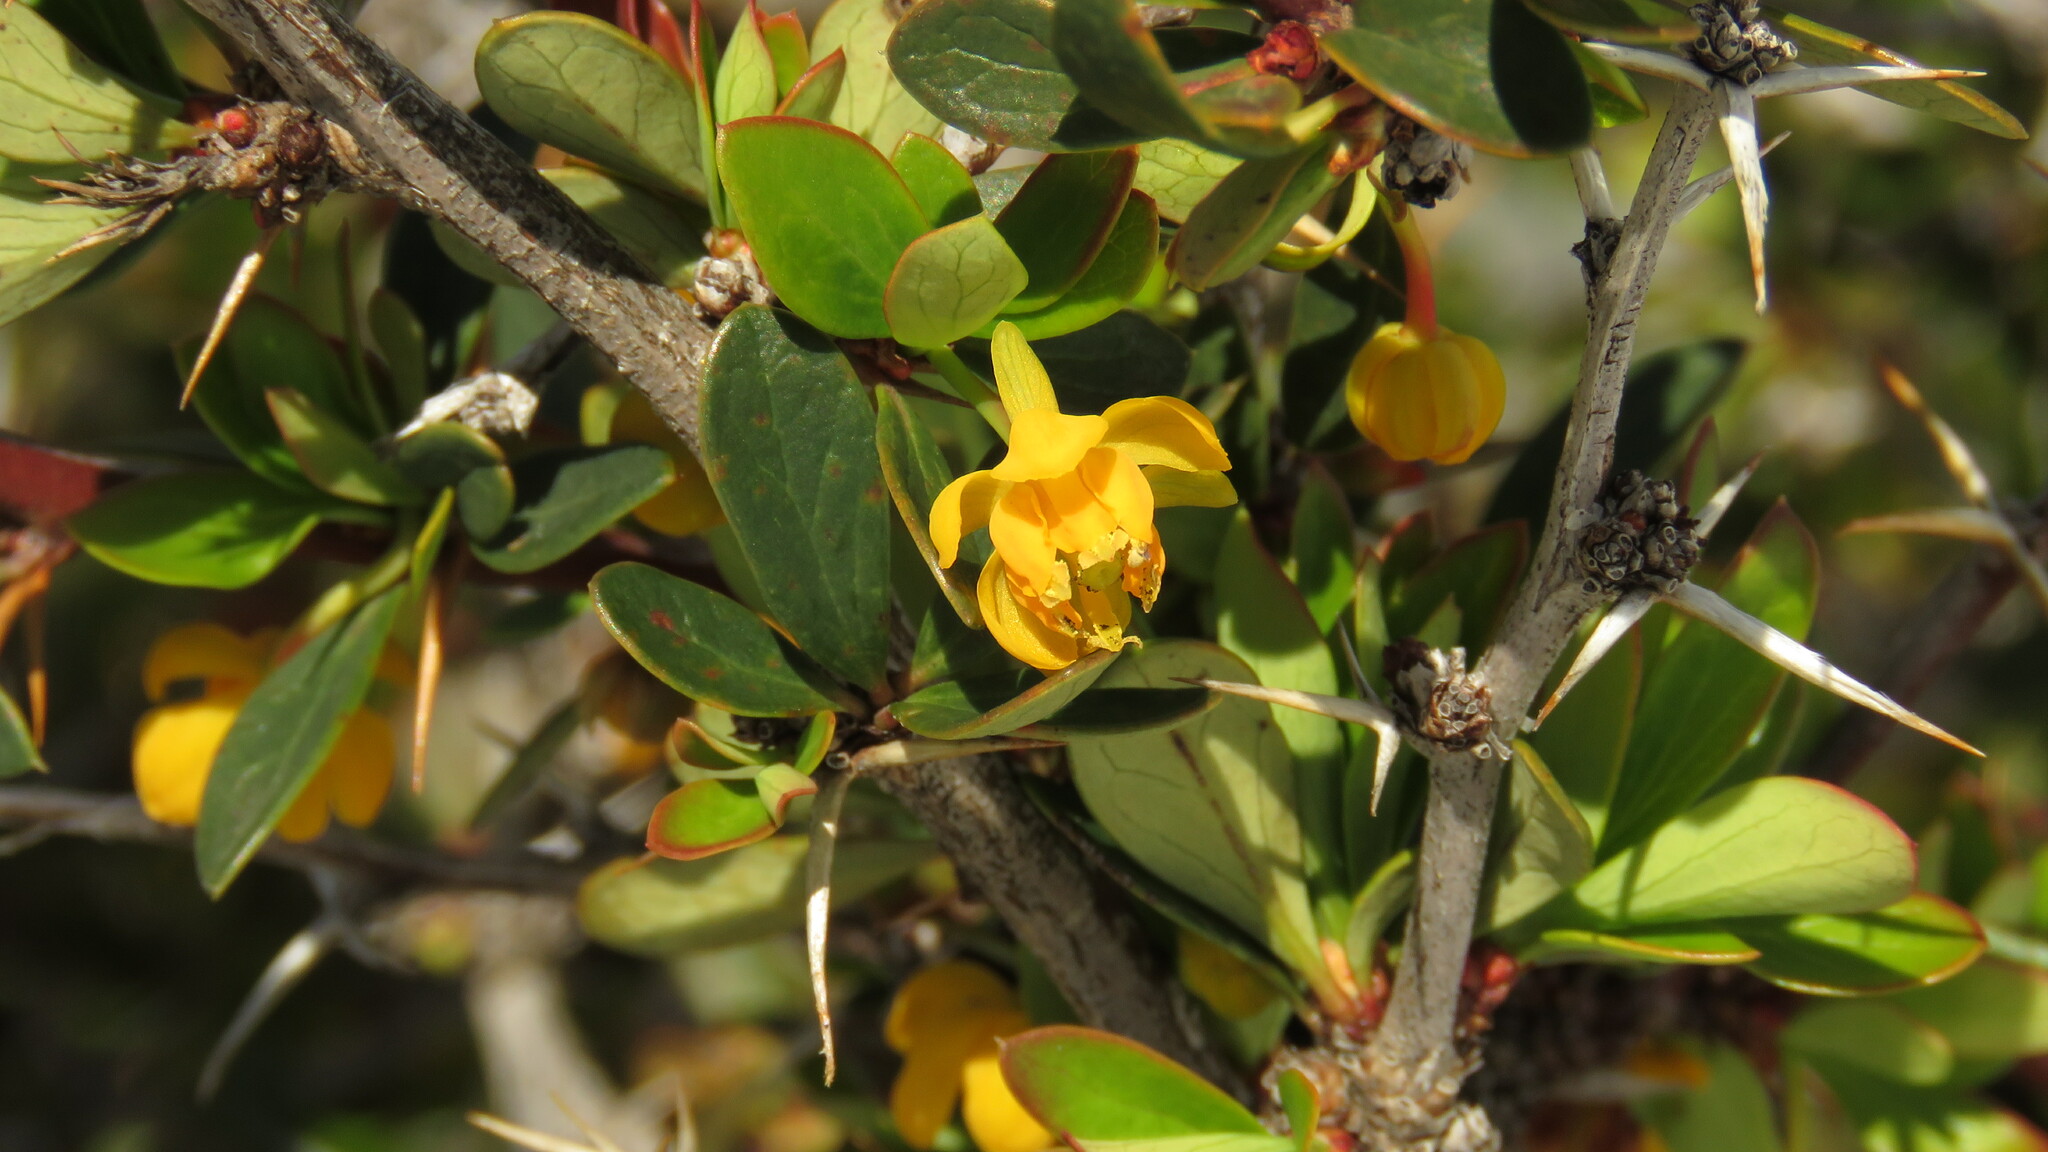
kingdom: Plantae
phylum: Tracheophyta
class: Magnoliopsida
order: Ranunculales
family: Berberidaceae
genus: Berberis
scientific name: Berberis microphylla
